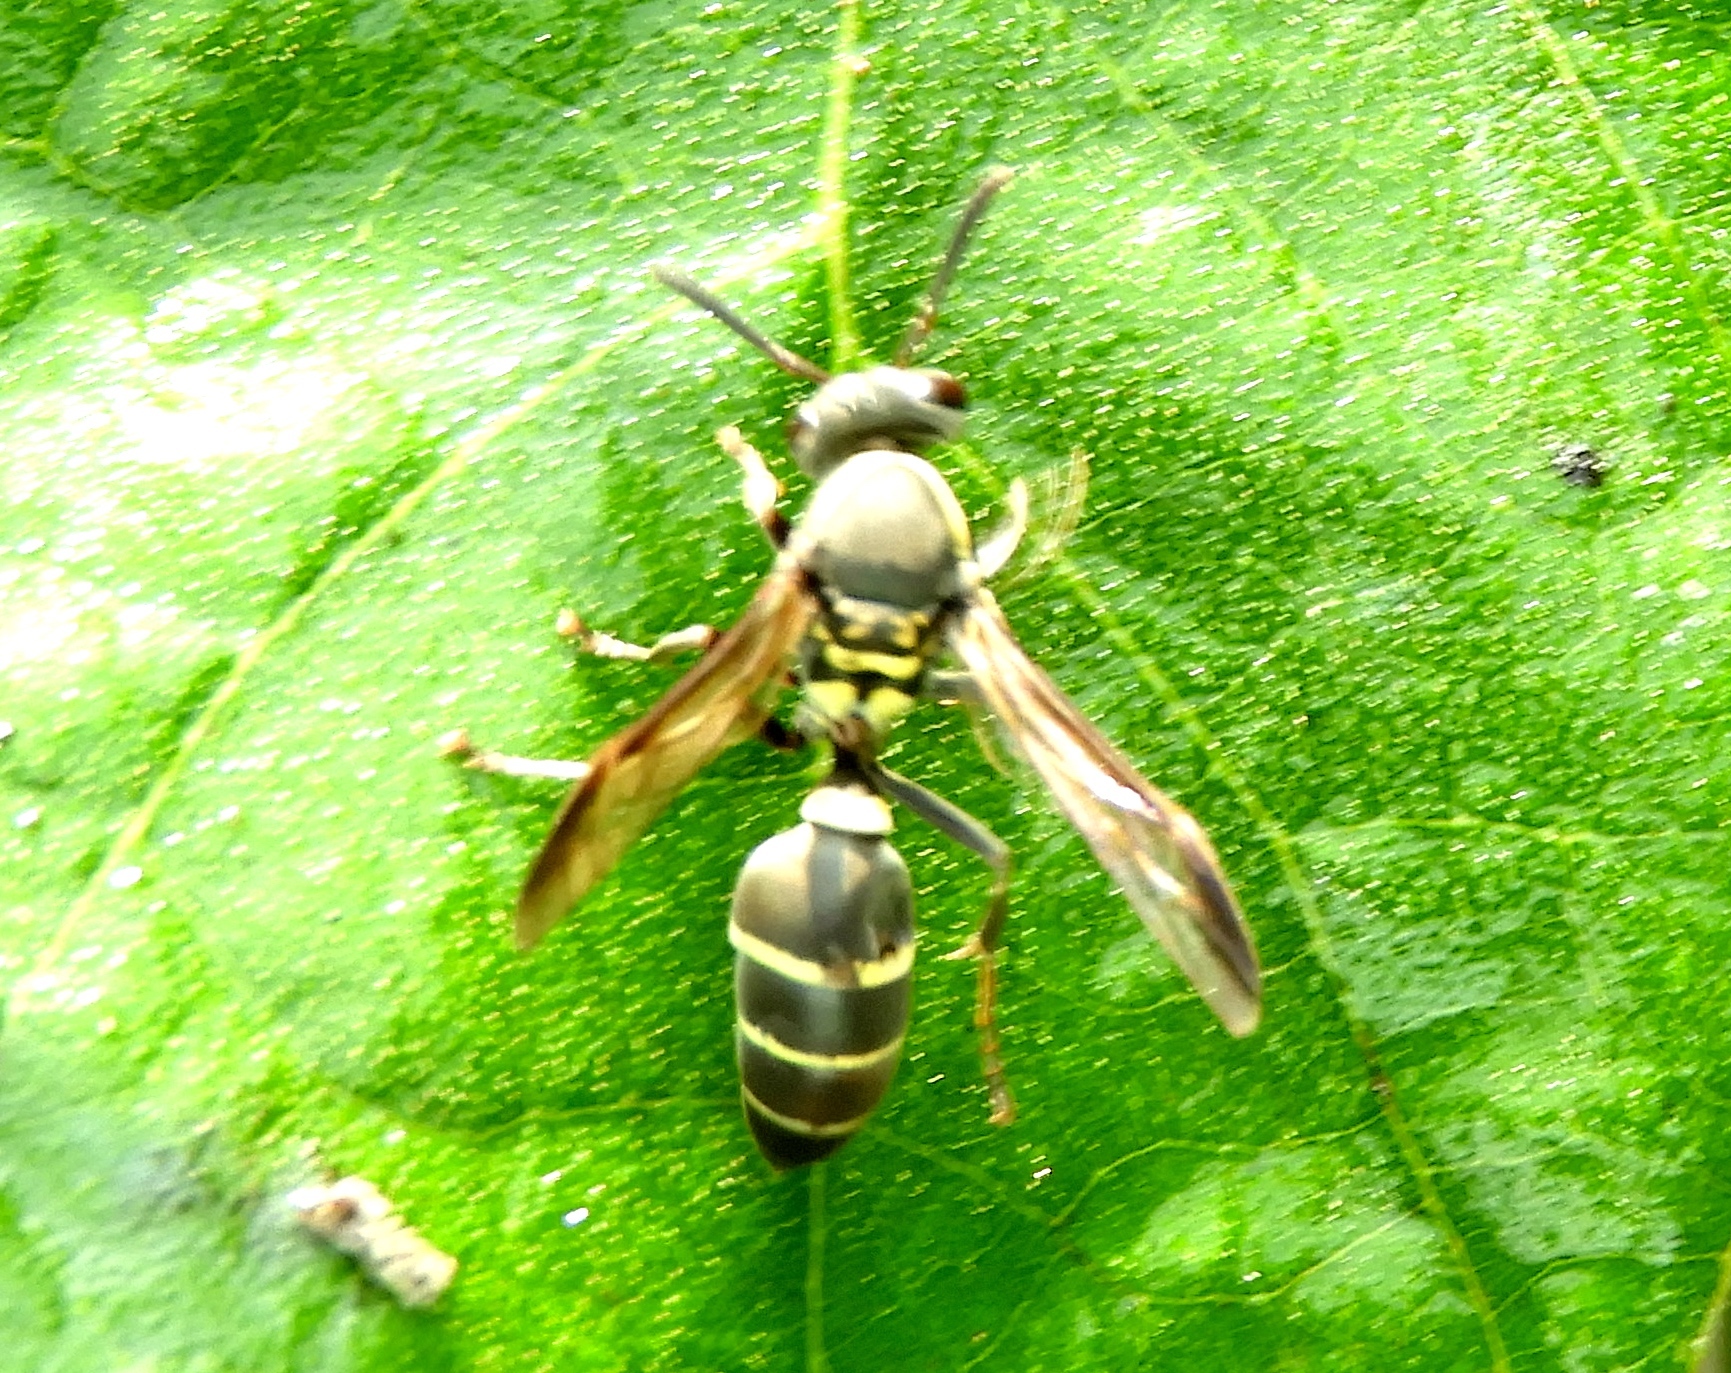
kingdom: Animalia
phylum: Arthropoda
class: Insecta
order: Hymenoptera
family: Vespidae
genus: Myrapetra
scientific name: Myrapetra
